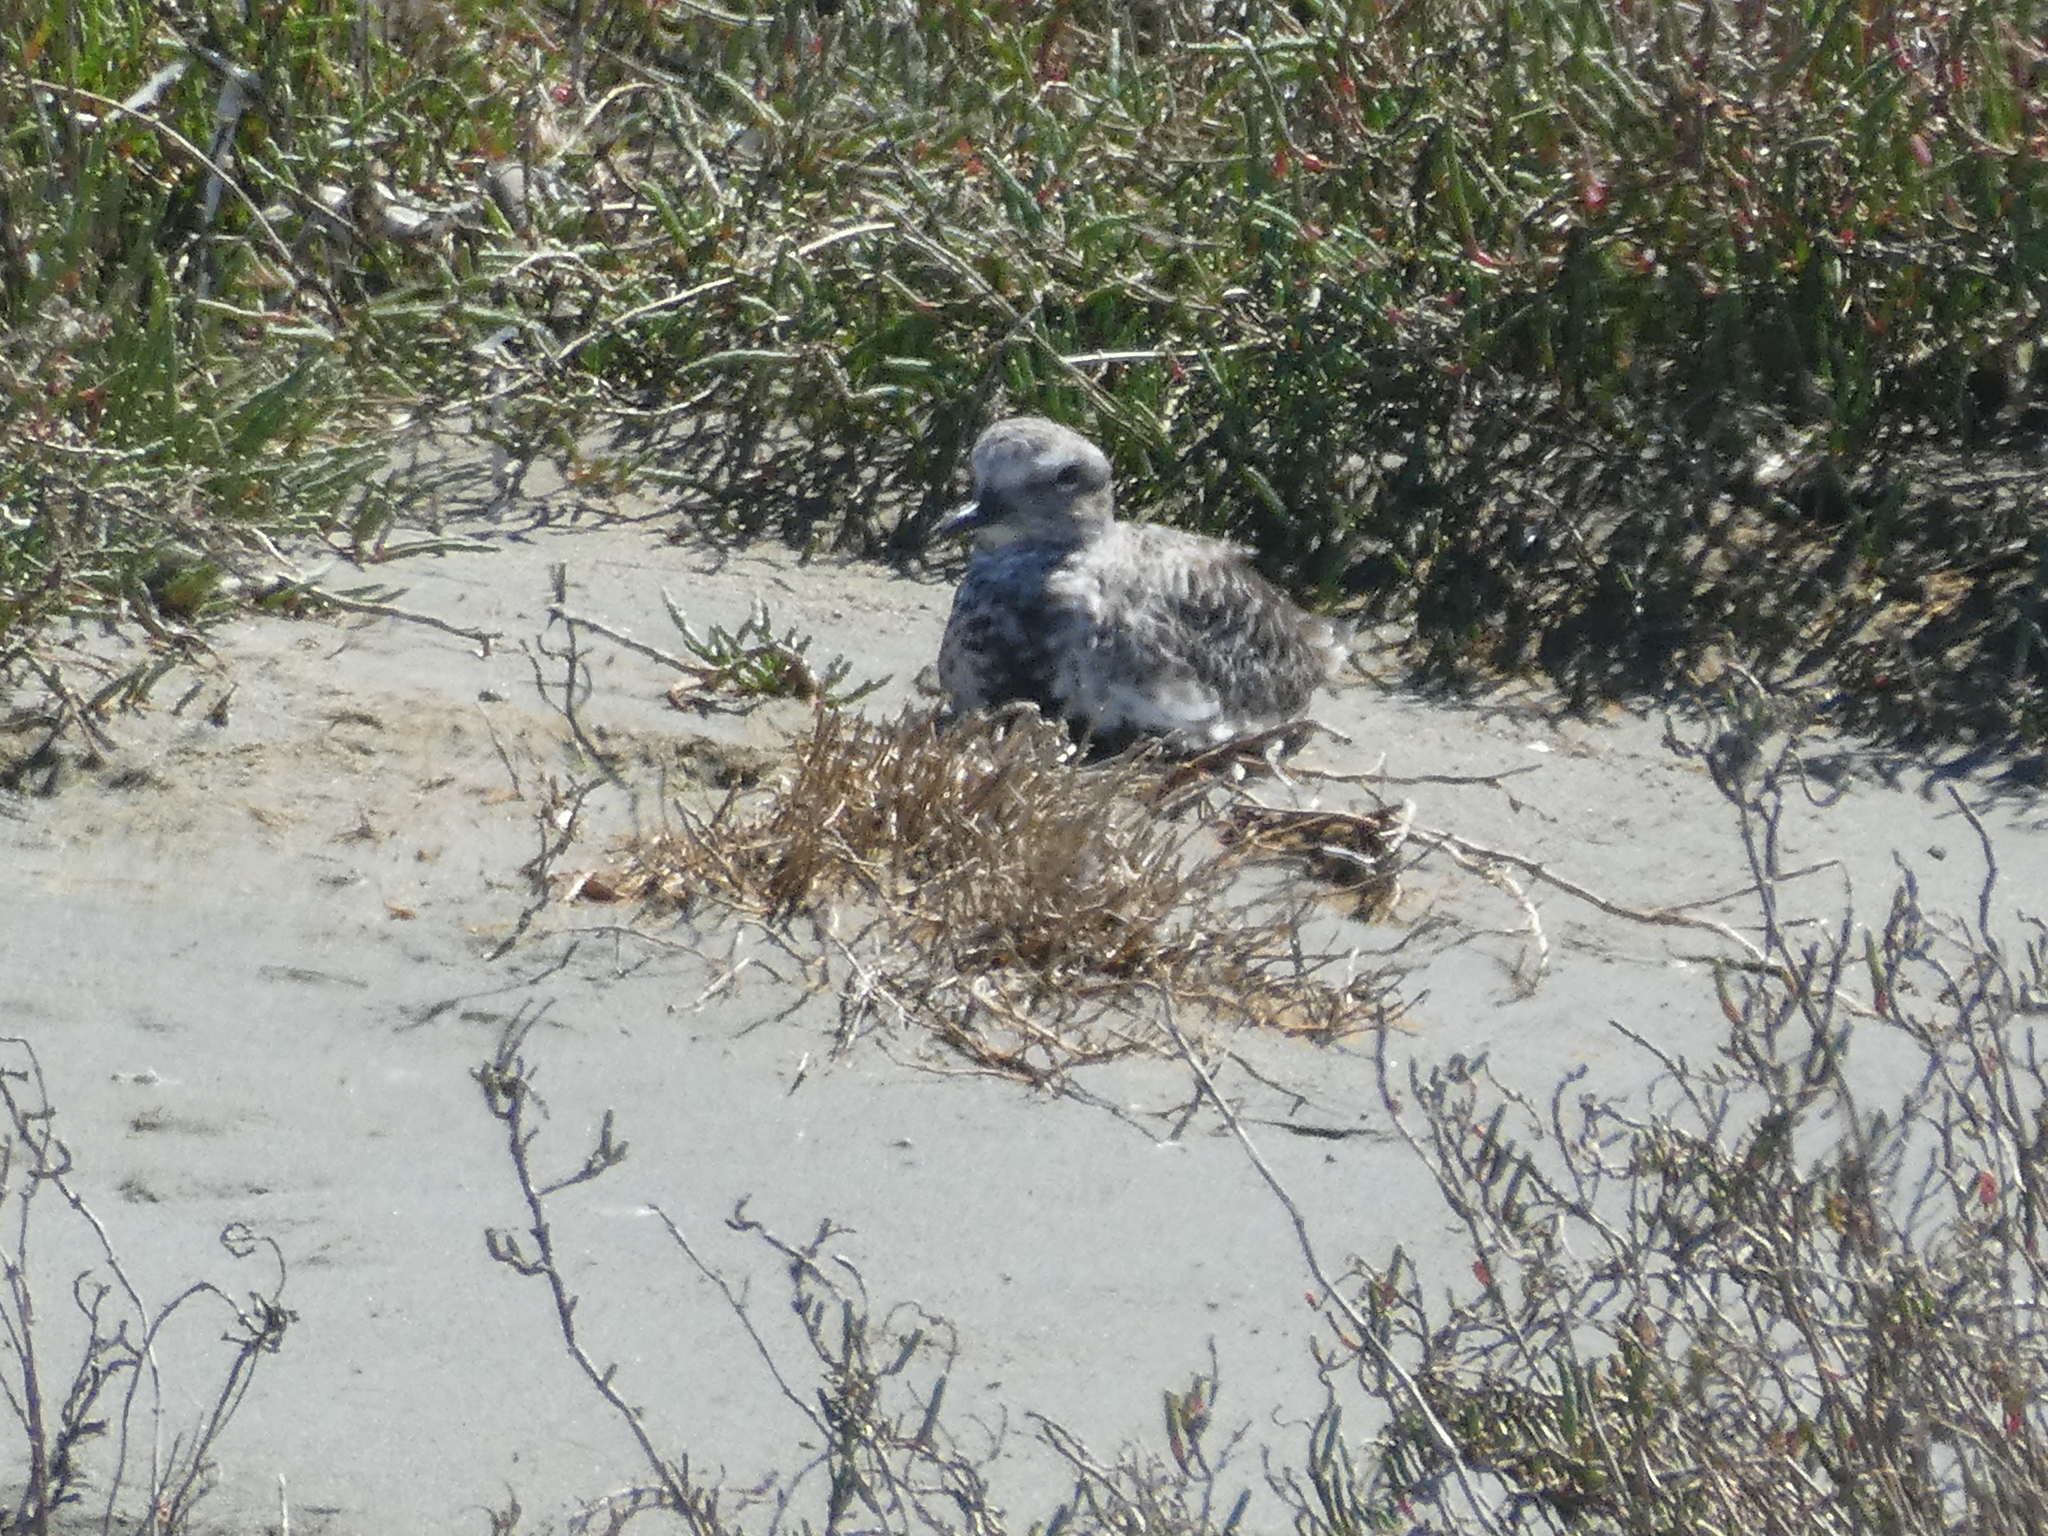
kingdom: Animalia
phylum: Chordata
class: Aves
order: Charadriiformes
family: Charadriidae
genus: Pluvialis
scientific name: Pluvialis squatarola
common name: Grey plover
